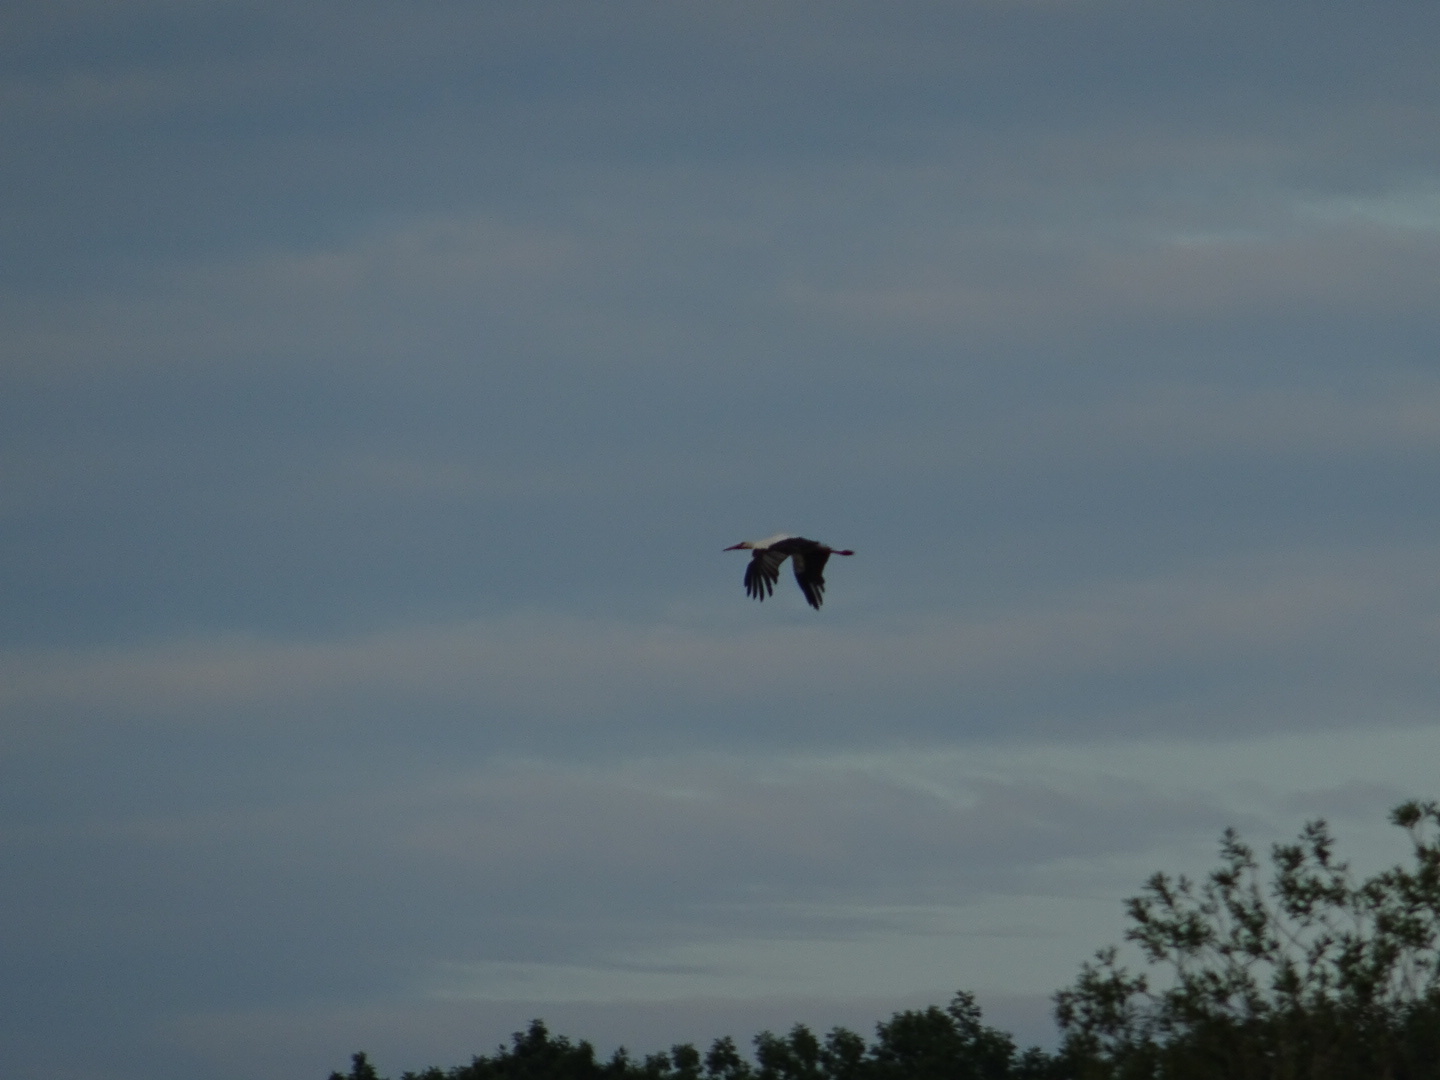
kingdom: Animalia
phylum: Chordata
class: Aves
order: Ciconiiformes
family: Ciconiidae
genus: Ciconia
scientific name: Ciconia ciconia
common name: White stork
